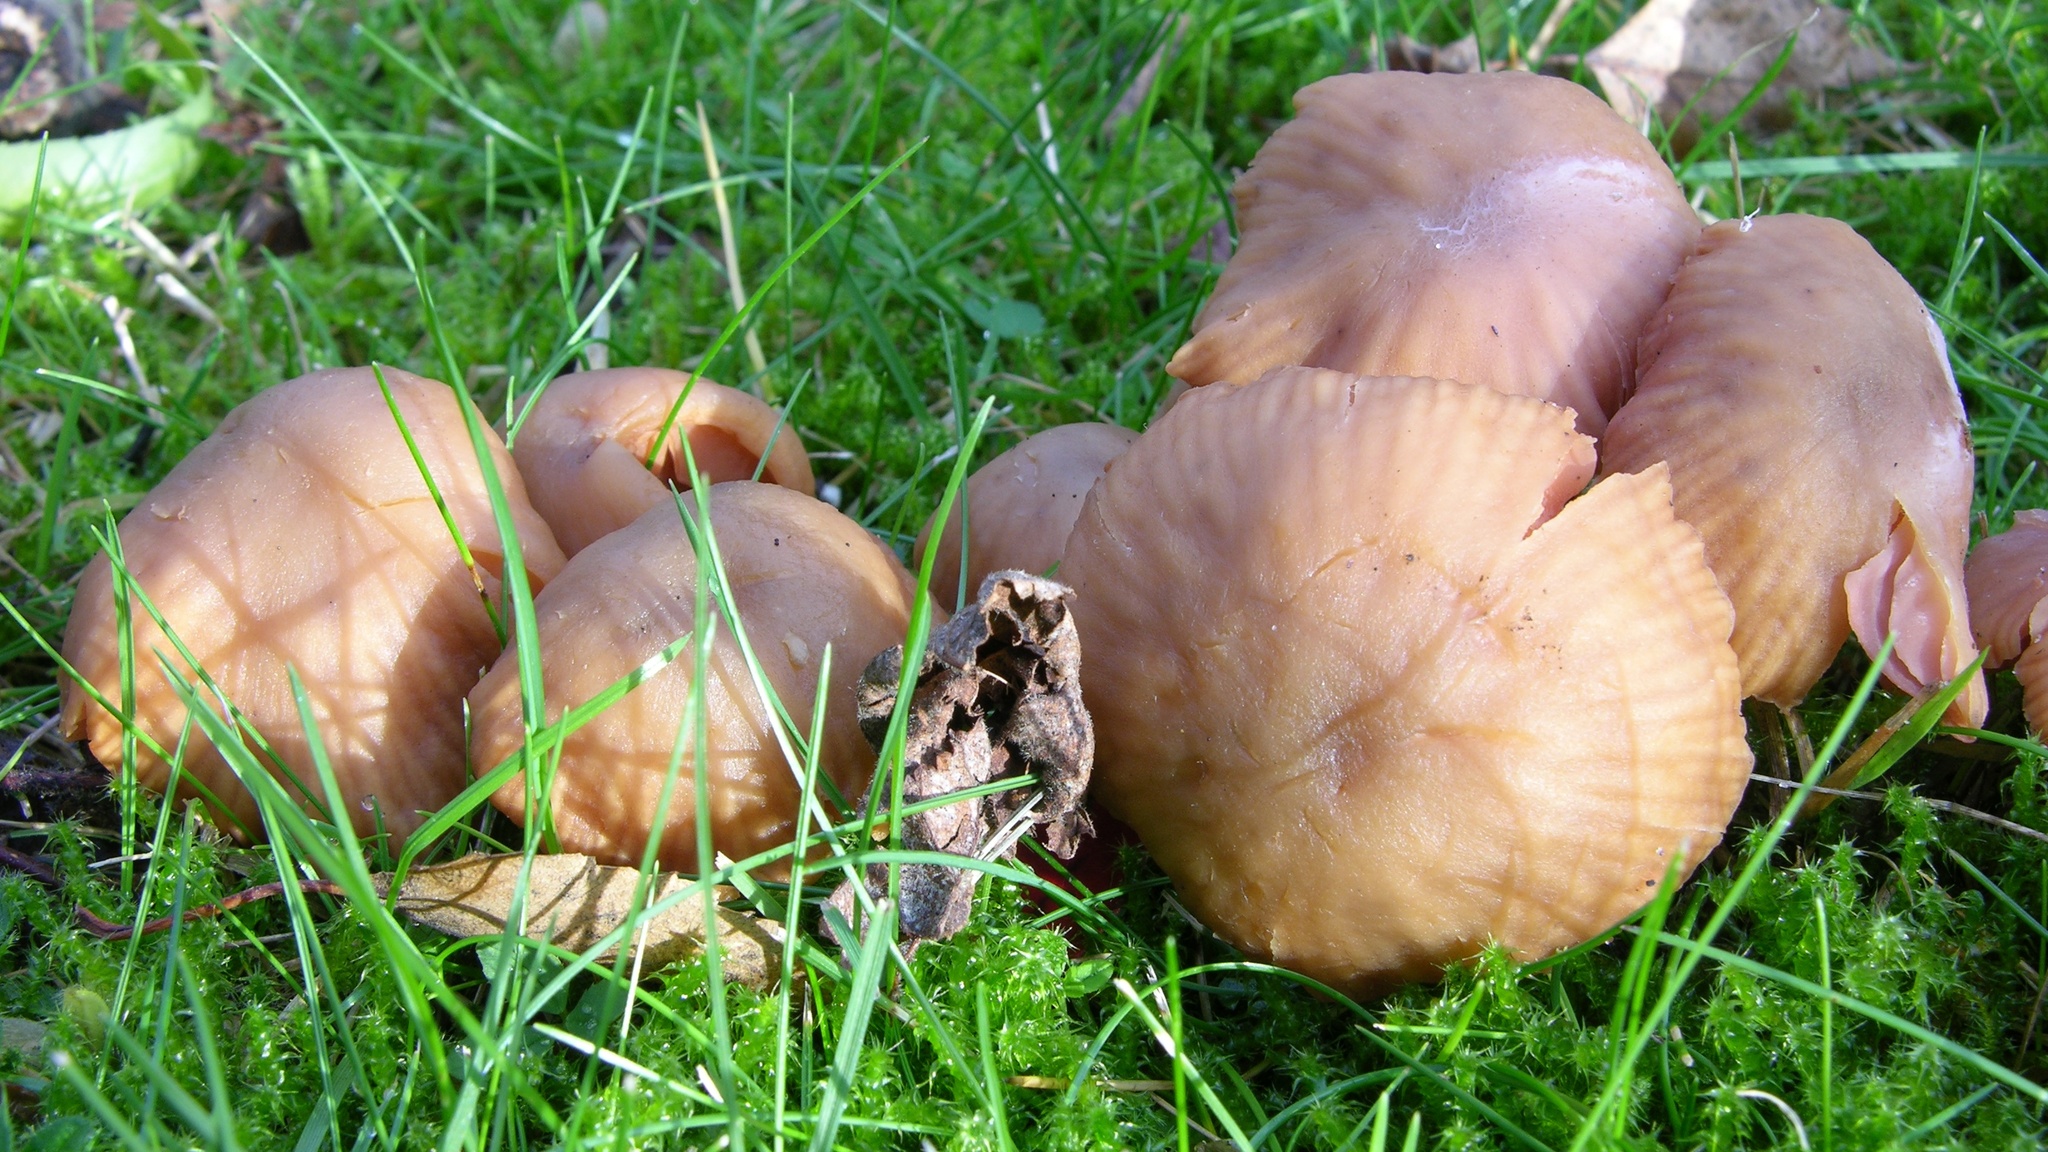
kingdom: Fungi
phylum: Basidiomycota
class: Agaricomycetes
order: Agaricales
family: Hydnangiaceae
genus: Laccaria
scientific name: Laccaria laccata
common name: Deceiver
